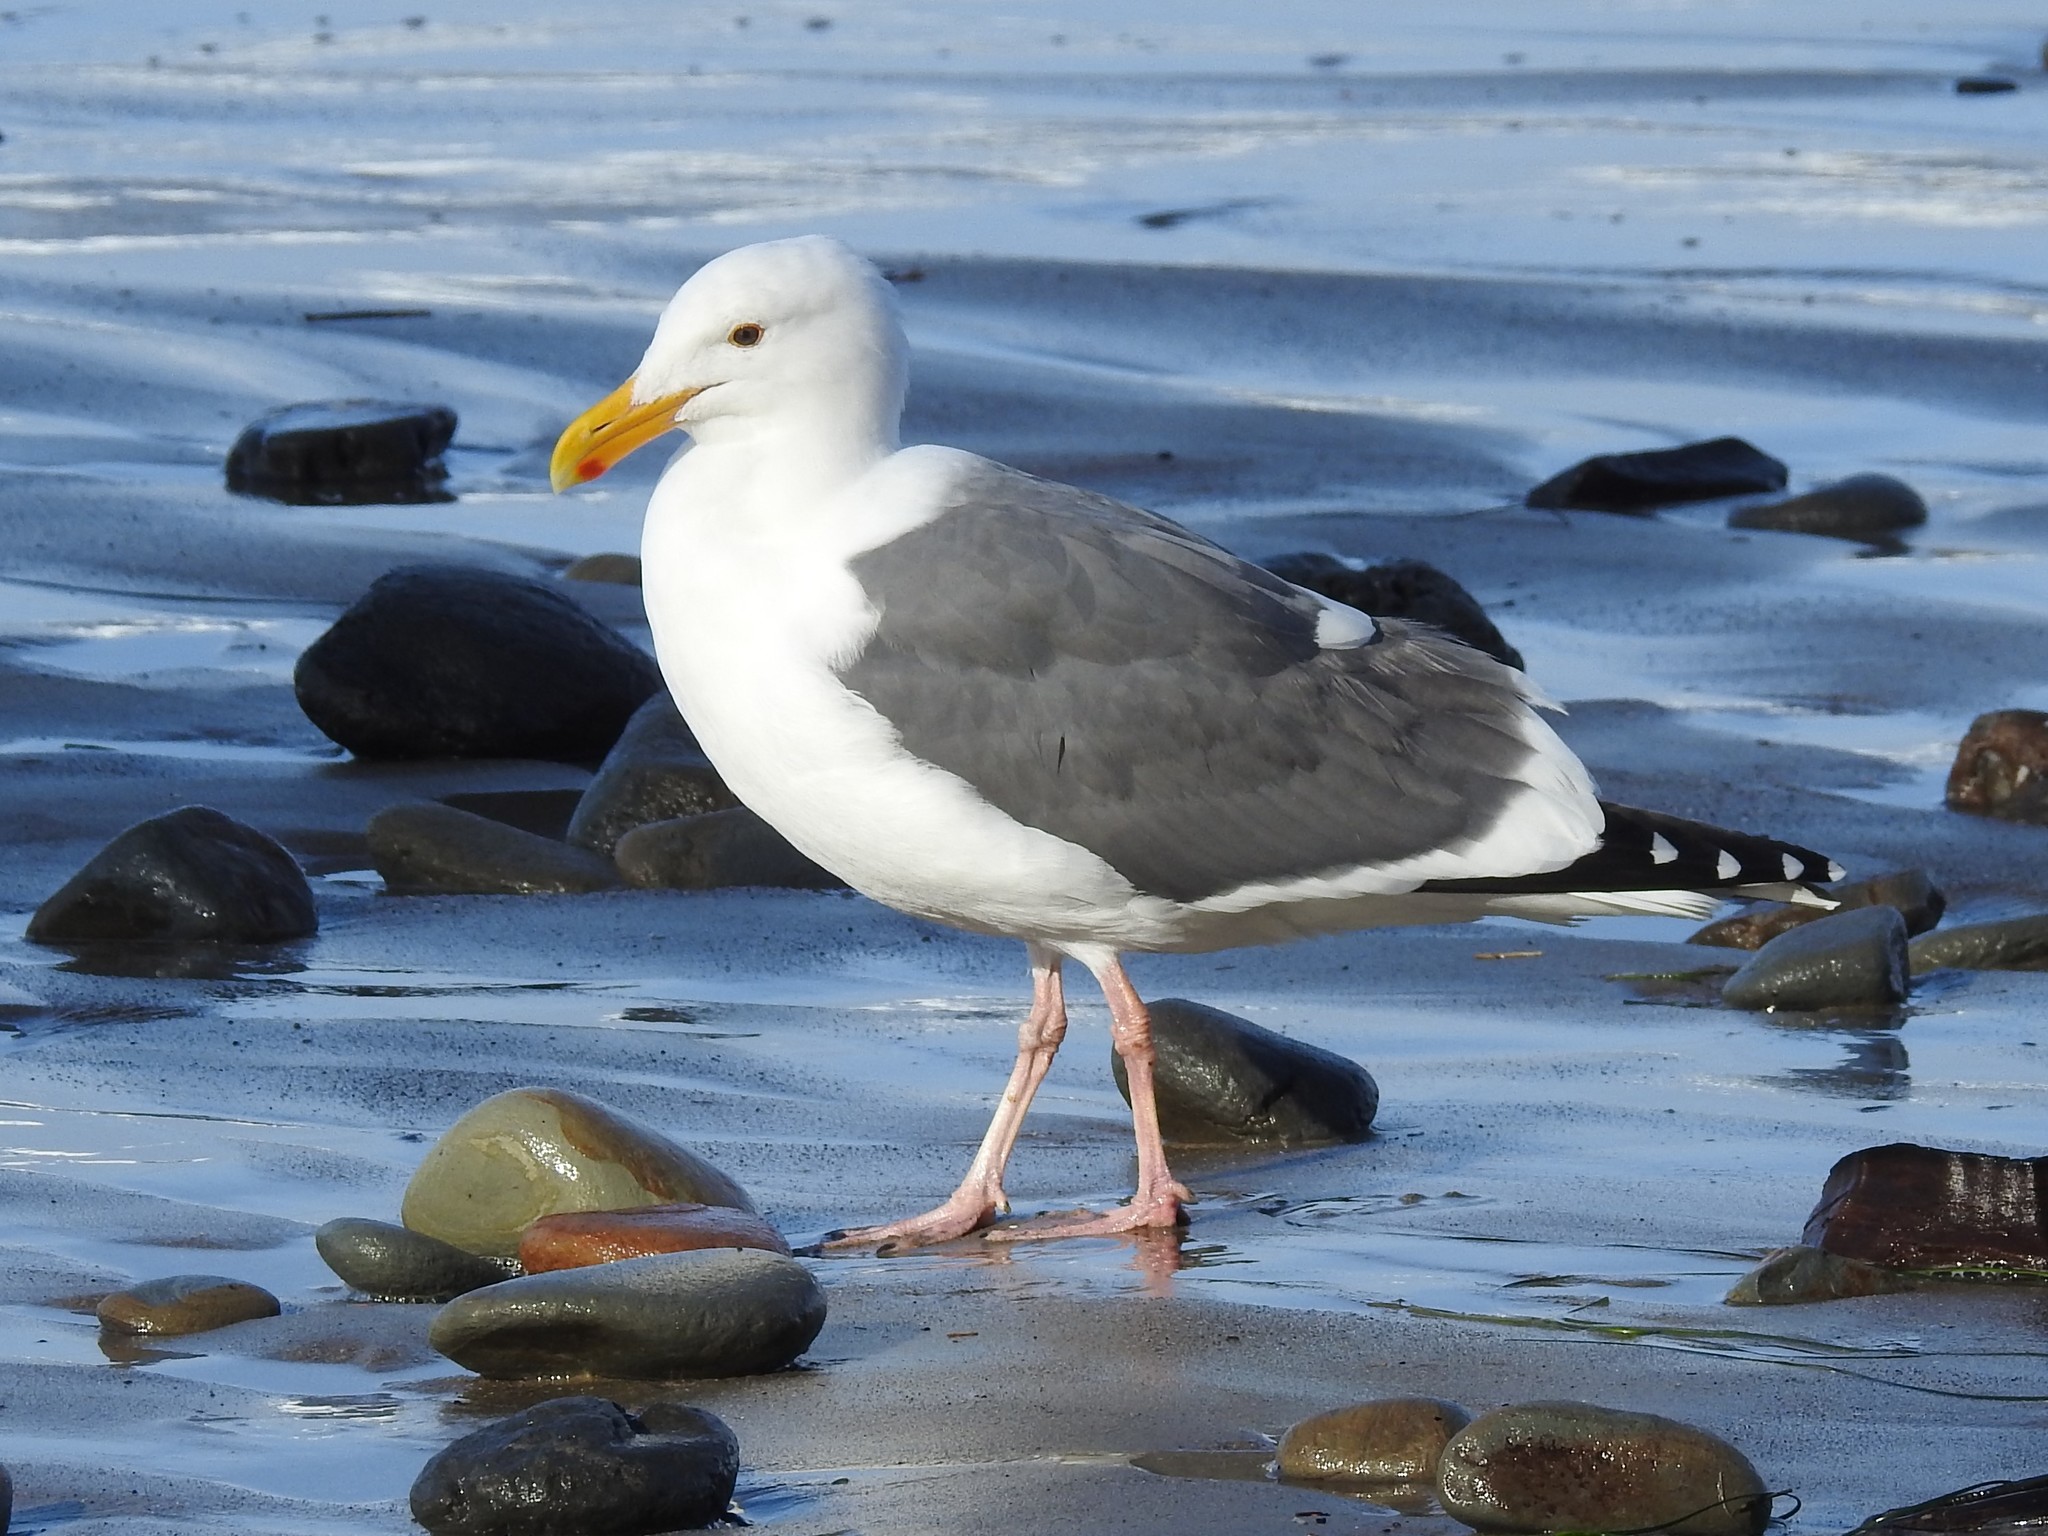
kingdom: Animalia
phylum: Chordata
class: Aves
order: Charadriiformes
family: Laridae
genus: Larus
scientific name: Larus occidentalis
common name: Western gull
